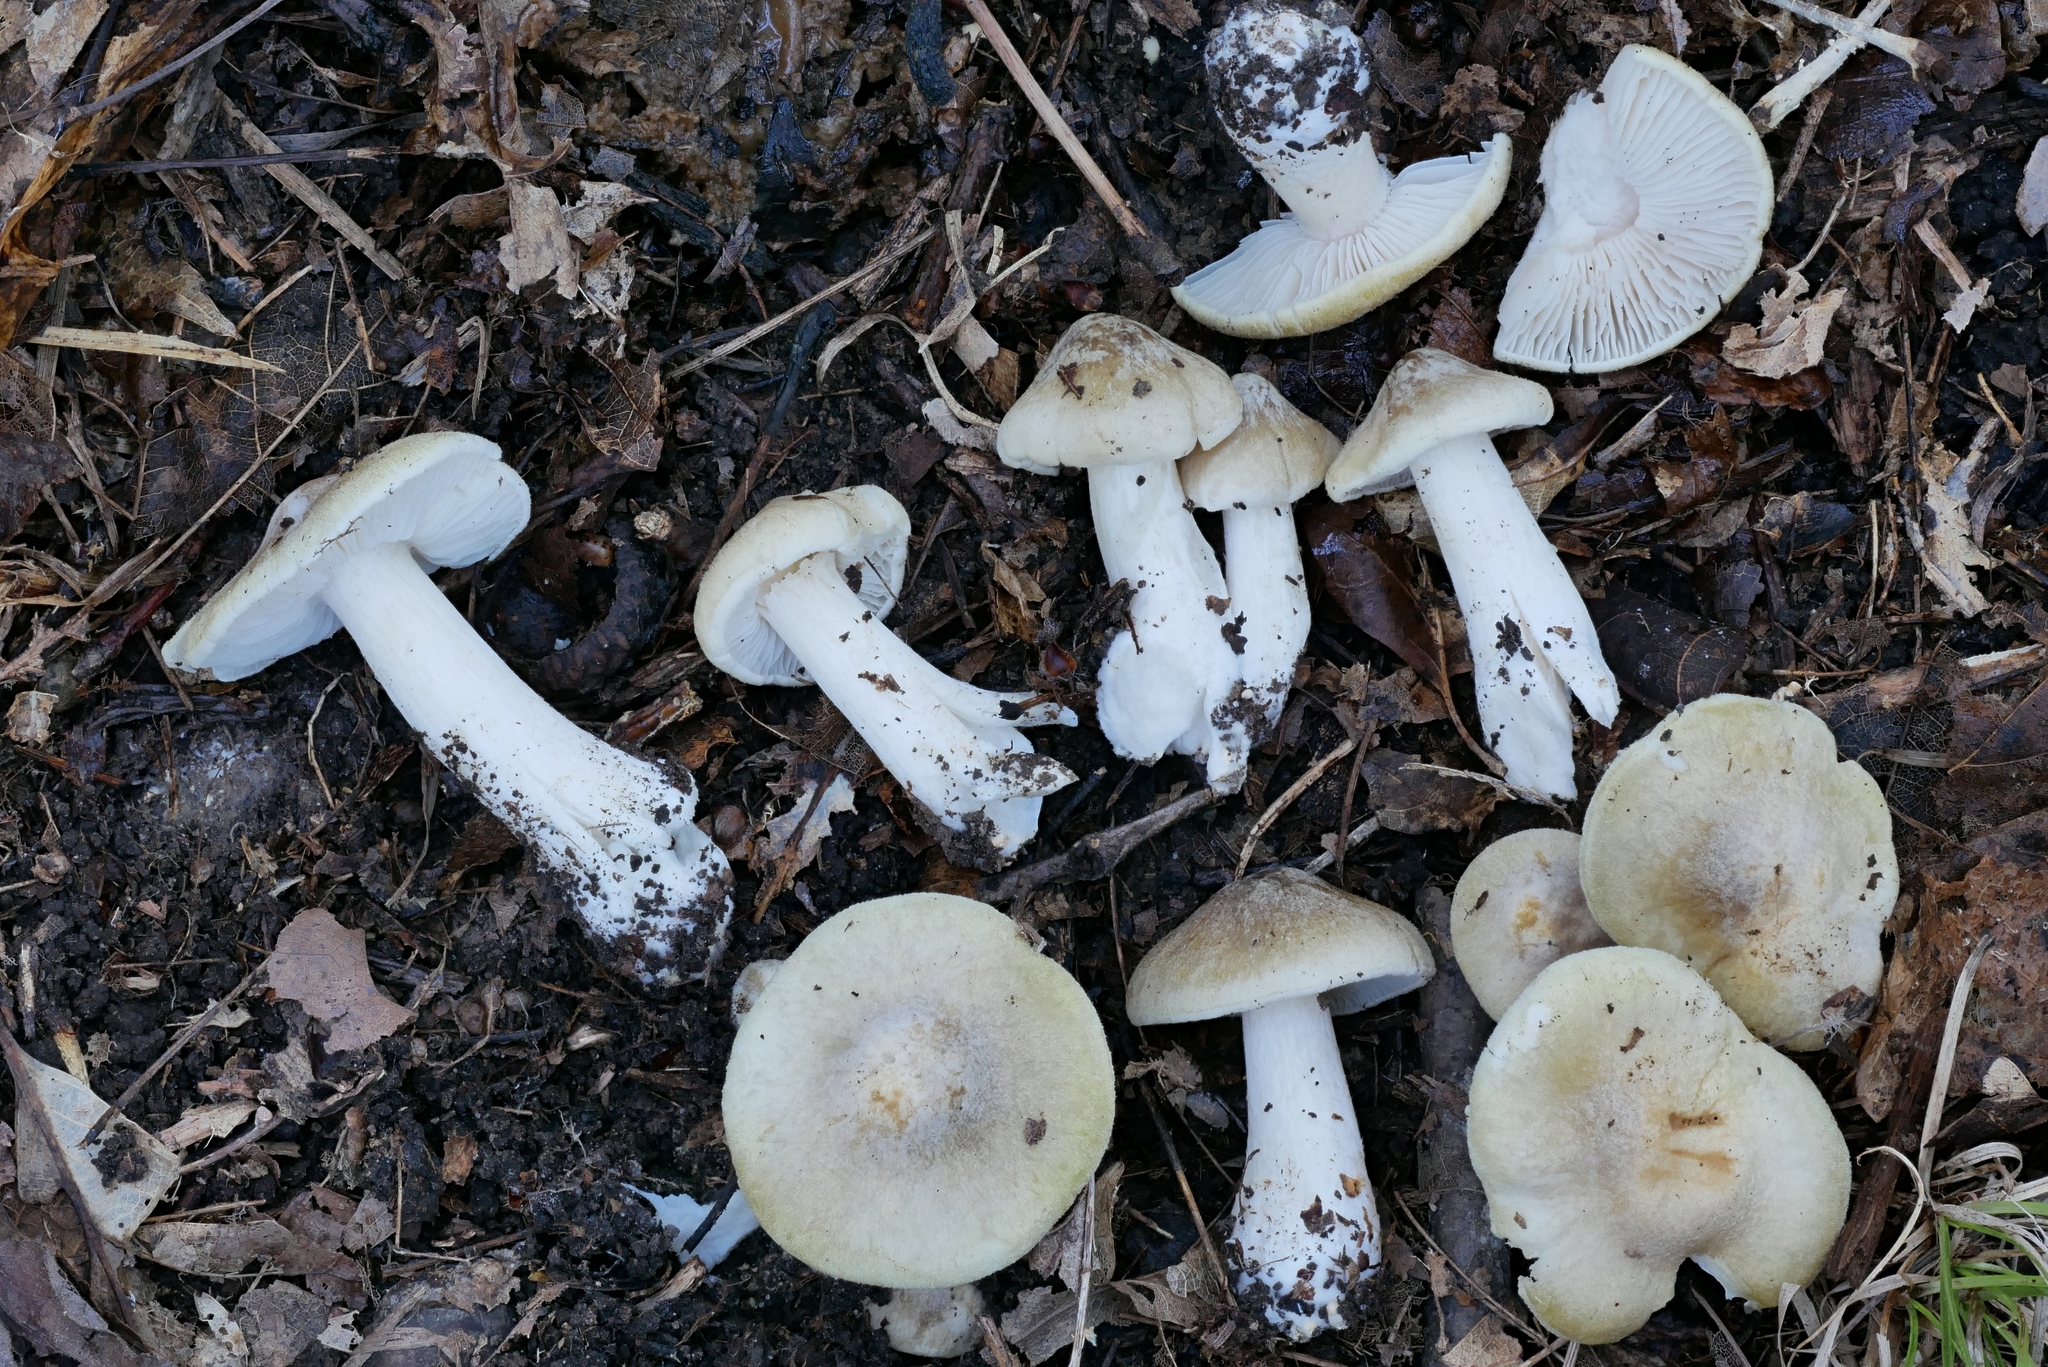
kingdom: Fungi
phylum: Basidiomycota
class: Agaricomycetes
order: Agaricales
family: Tricholomataceae
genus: Tricholoma
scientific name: Tricholoma subaureum
